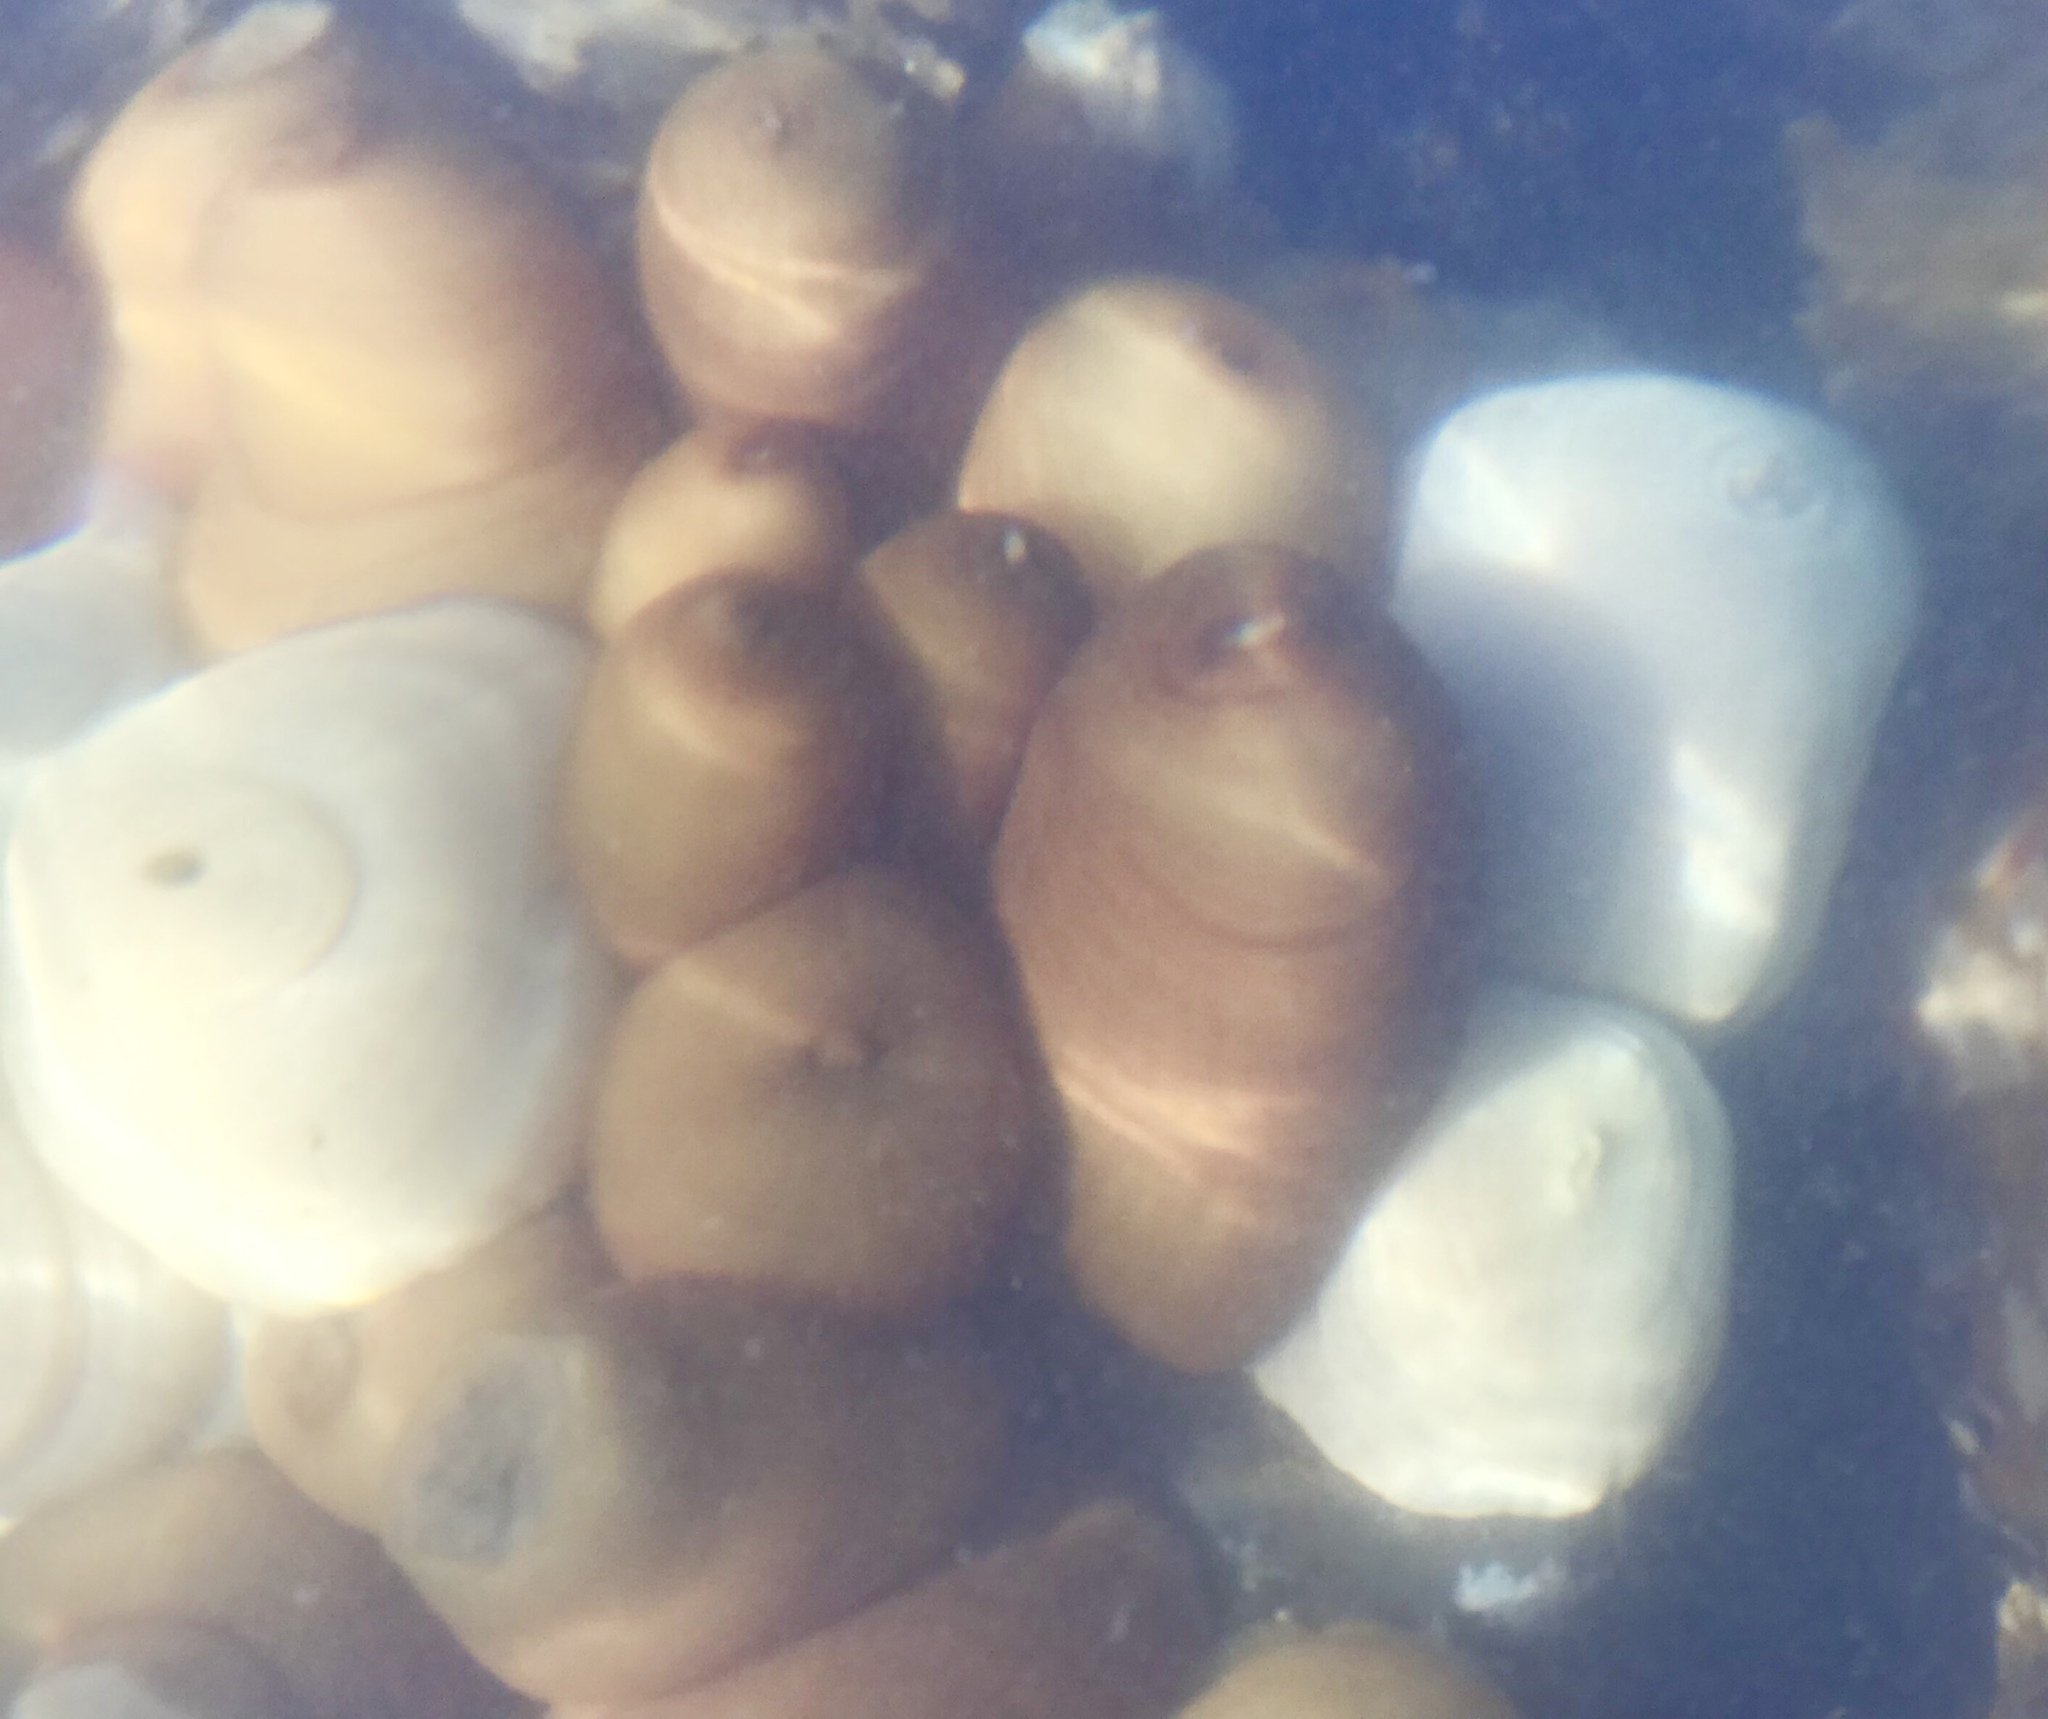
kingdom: Animalia
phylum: Cnidaria
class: Anthozoa
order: Actiniaria
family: Metridiidae
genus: Metridium
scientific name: Metridium senile
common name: Clonal plumose anemone
